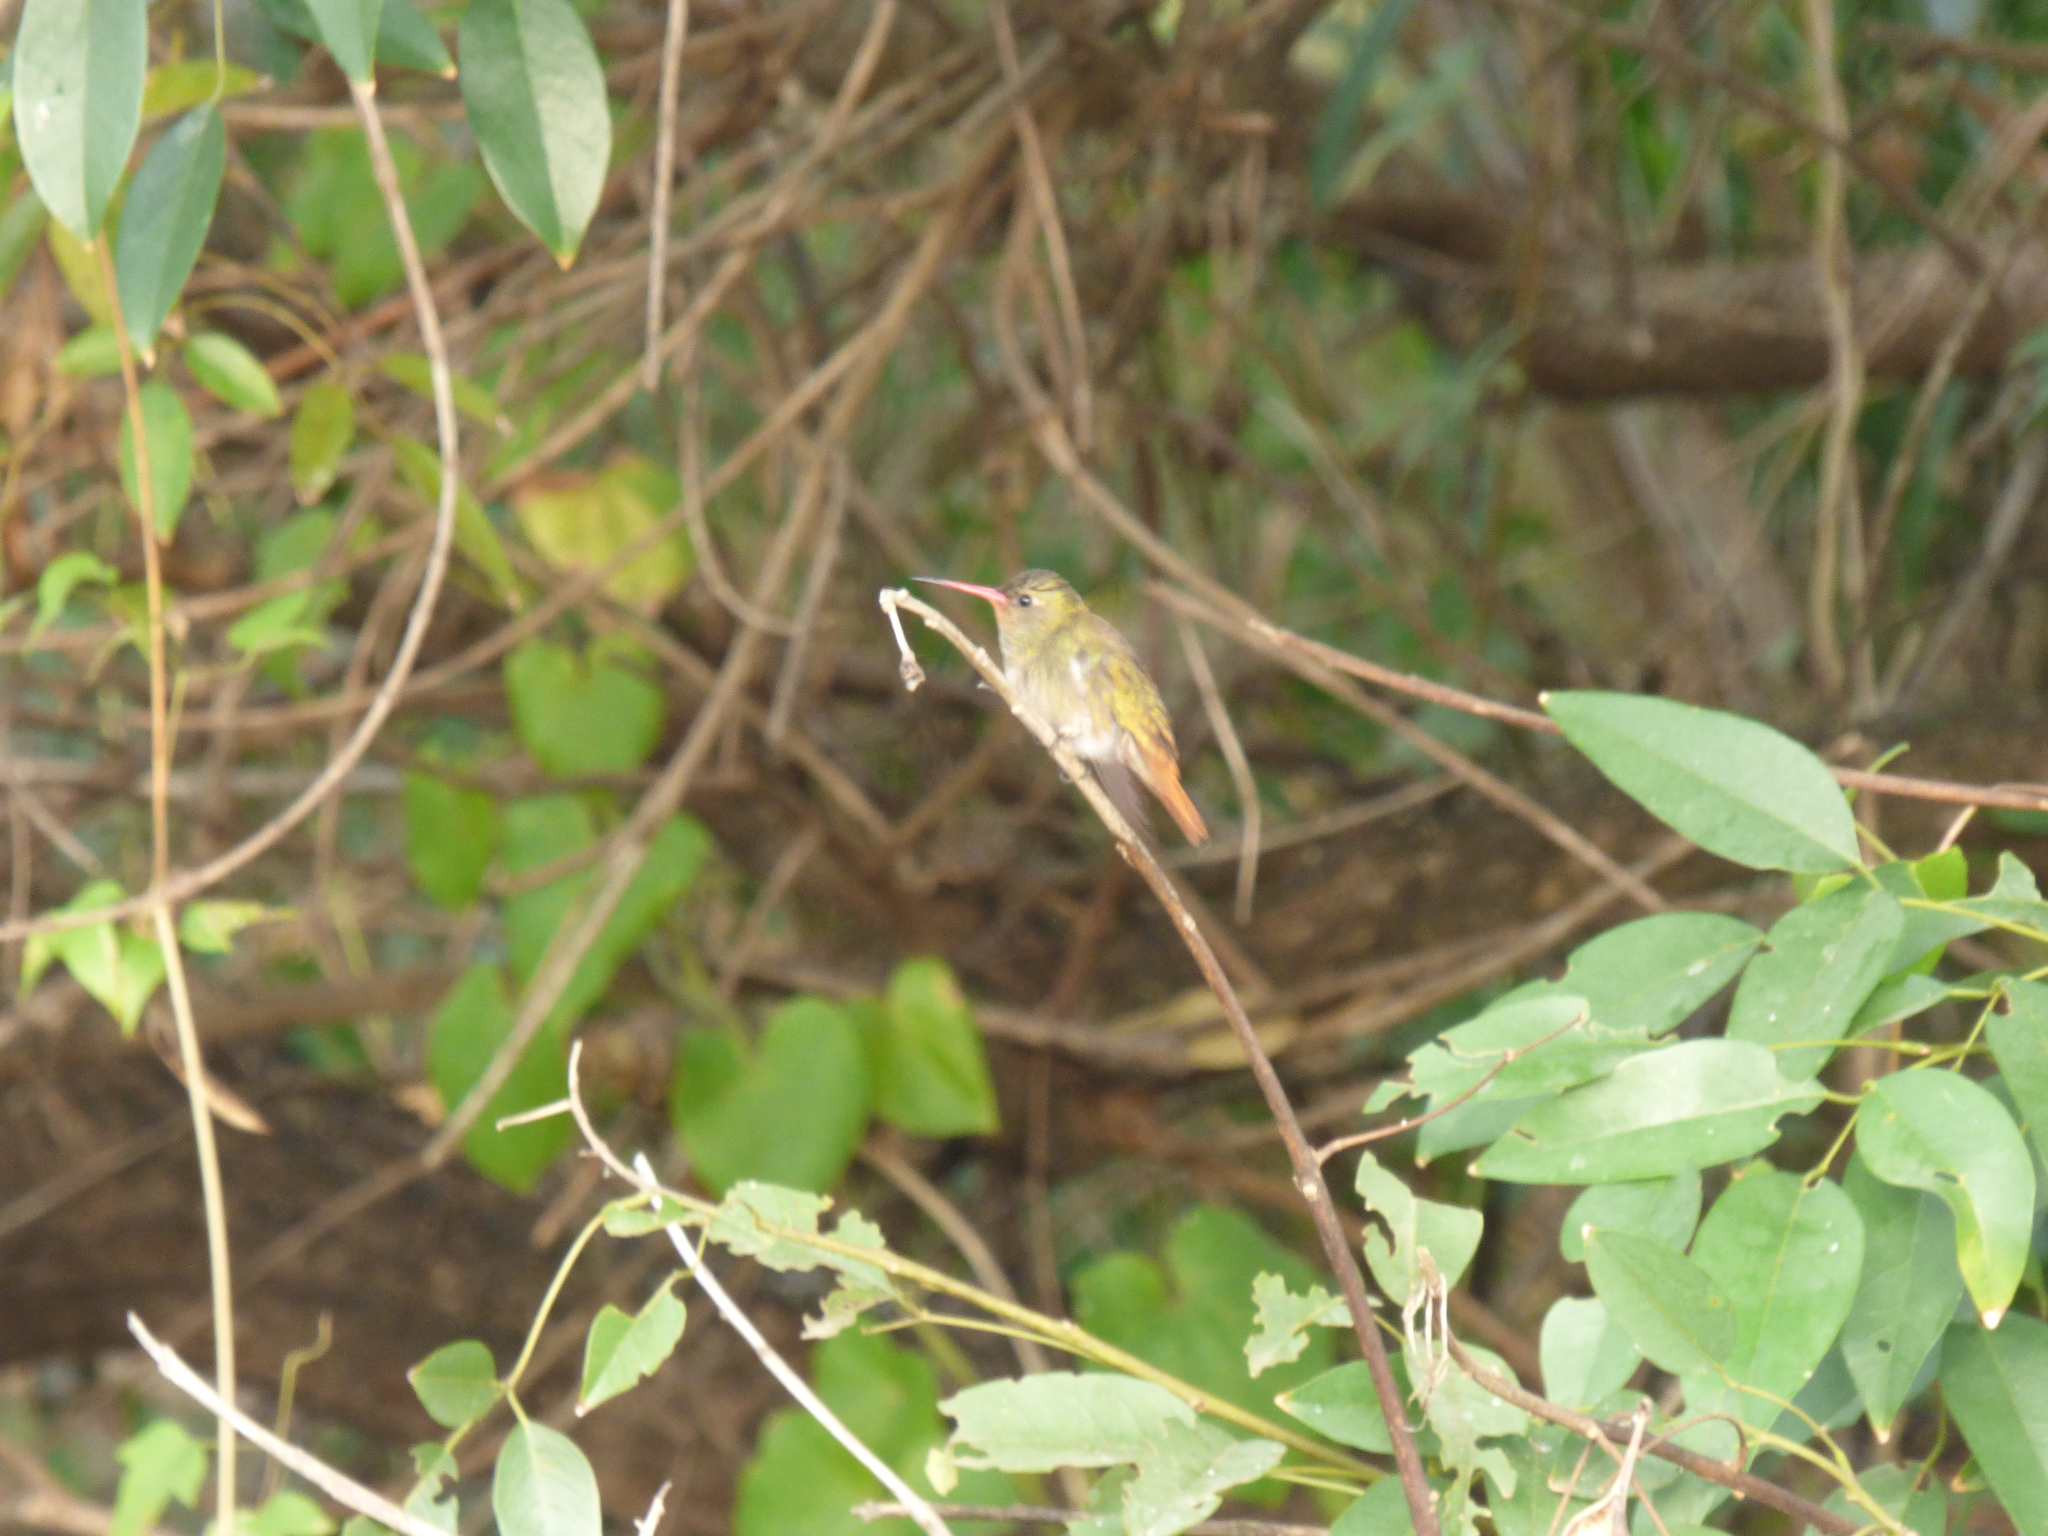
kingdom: Animalia
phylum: Chordata
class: Aves
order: Apodiformes
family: Trochilidae
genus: Hylocharis
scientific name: Hylocharis chrysura
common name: Gilded sapphire
